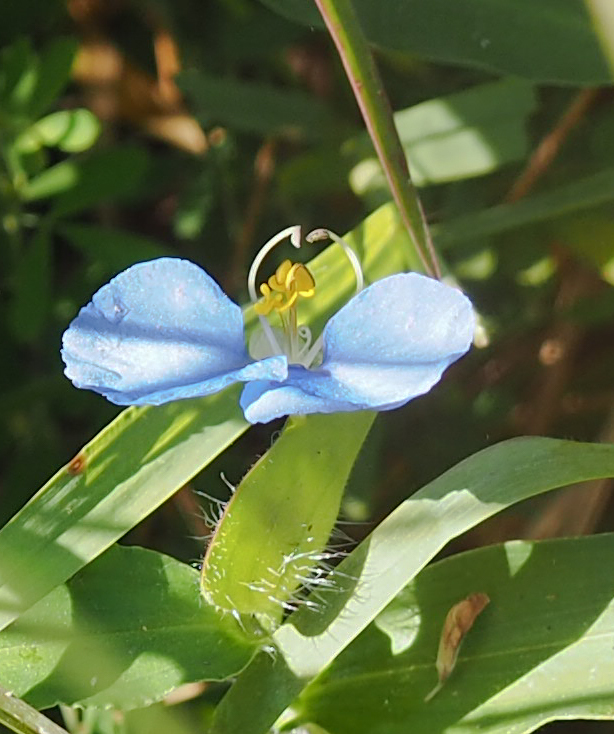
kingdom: Plantae
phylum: Tracheophyta
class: Liliopsida
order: Commelinales
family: Commelinaceae
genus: Commelina
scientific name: Commelina erecta
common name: Blousel blommetjie
